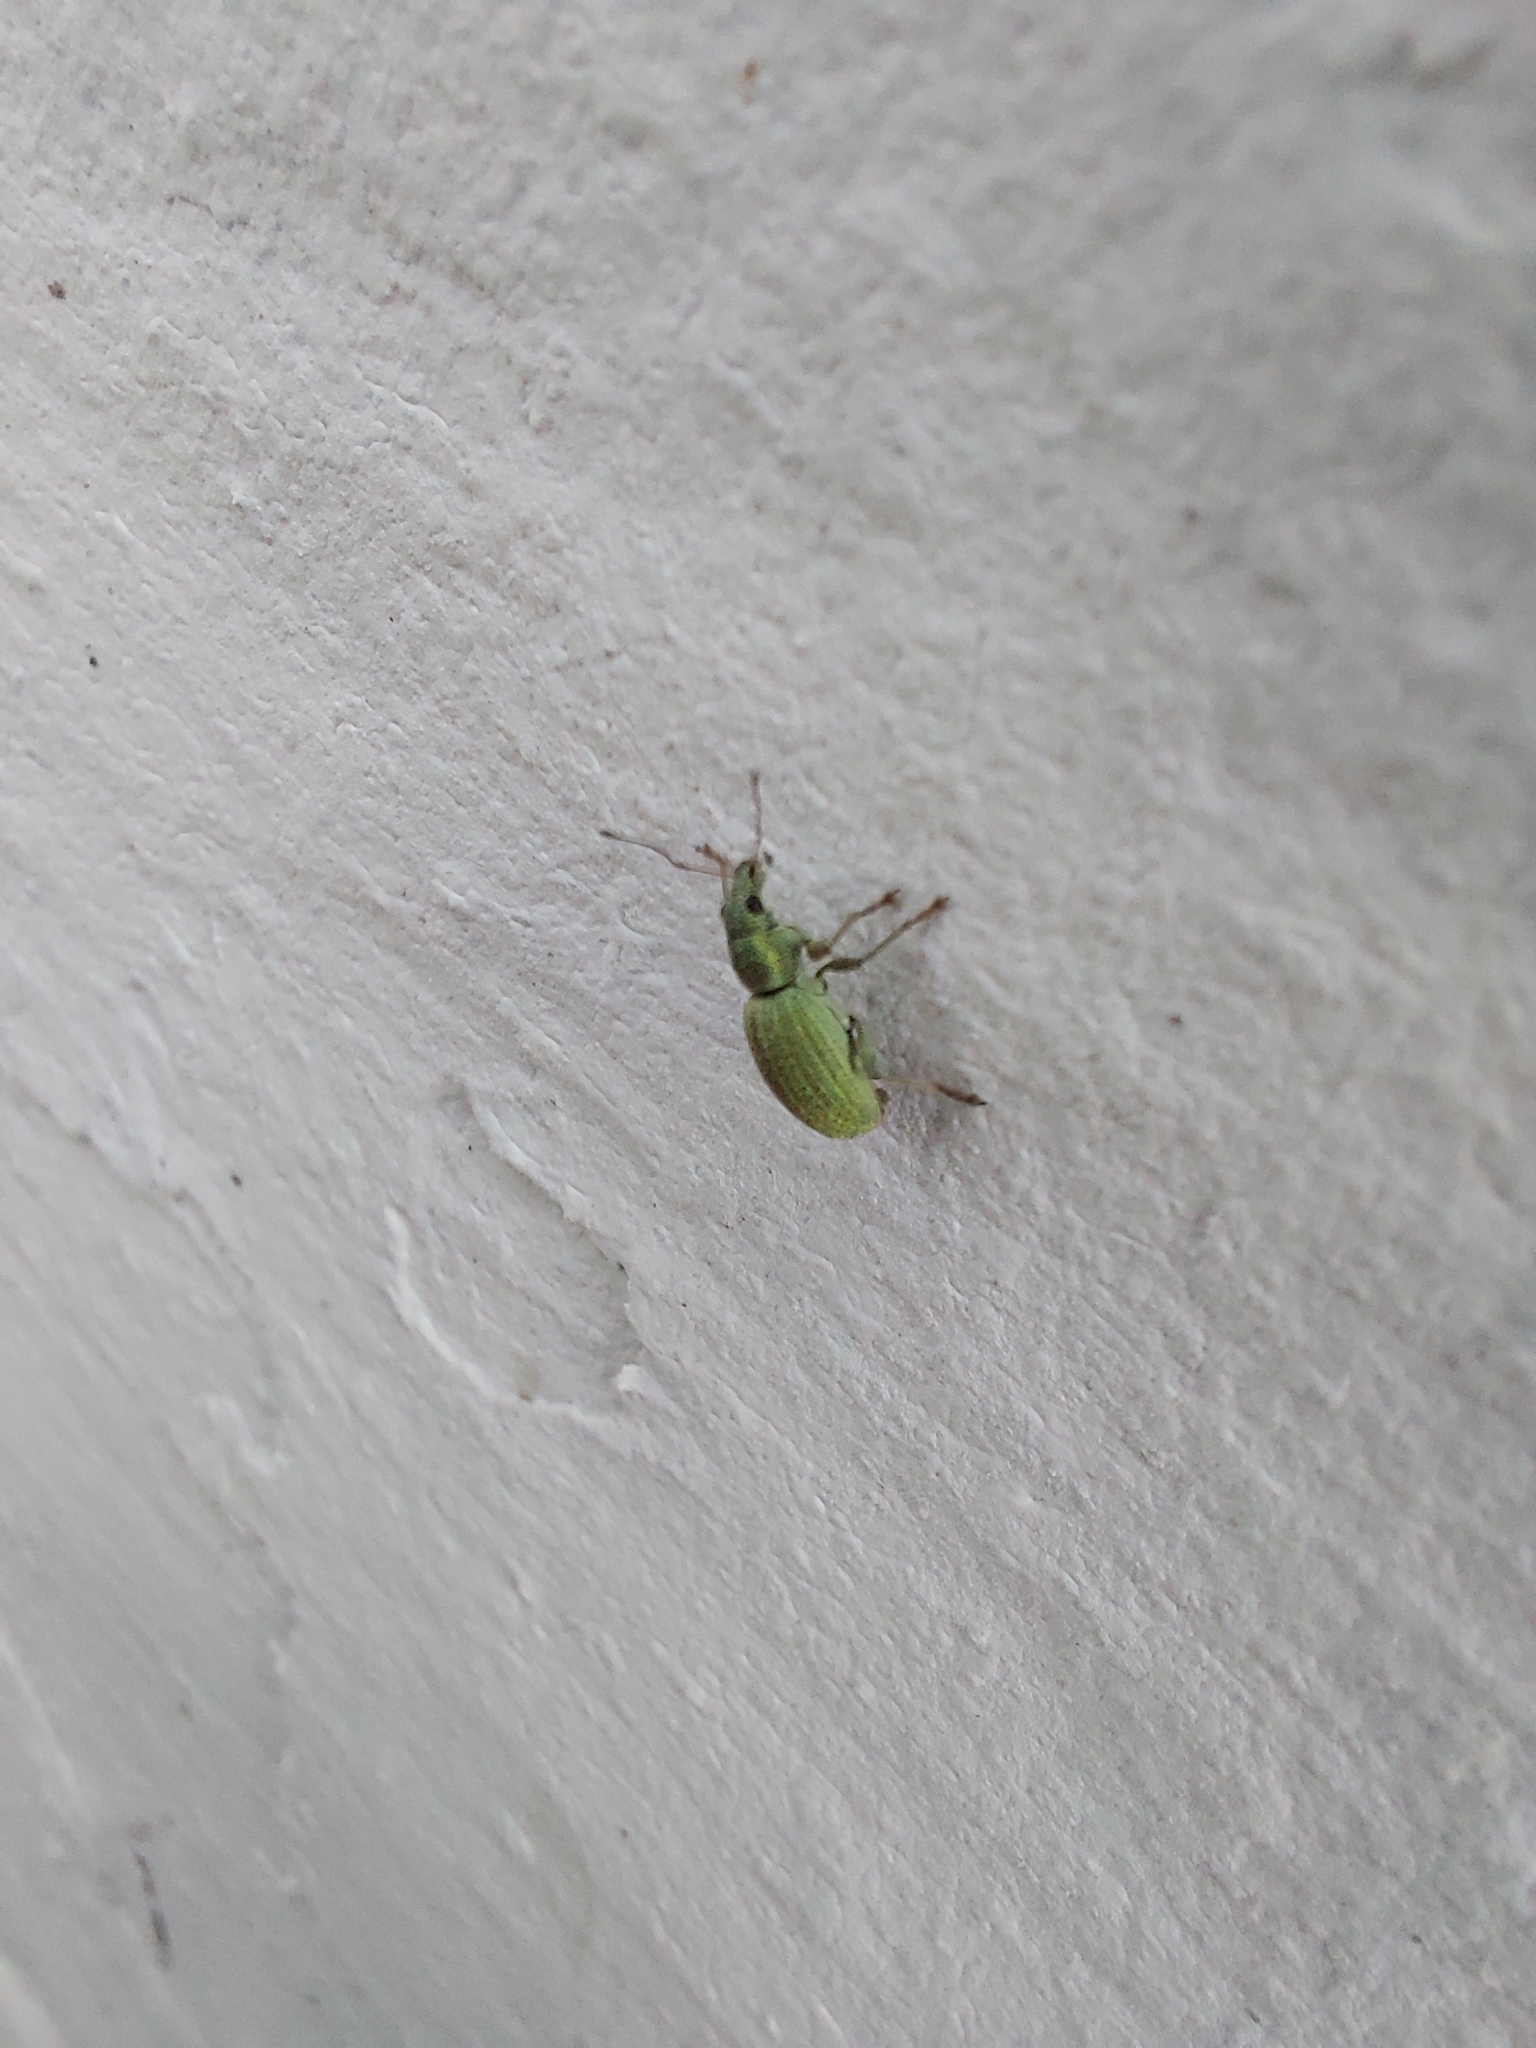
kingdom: Animalia
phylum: Arthropoda
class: Insecta
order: Coleoptera
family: Curculionidae
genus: Eusomus
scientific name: Eusomus ovulum
